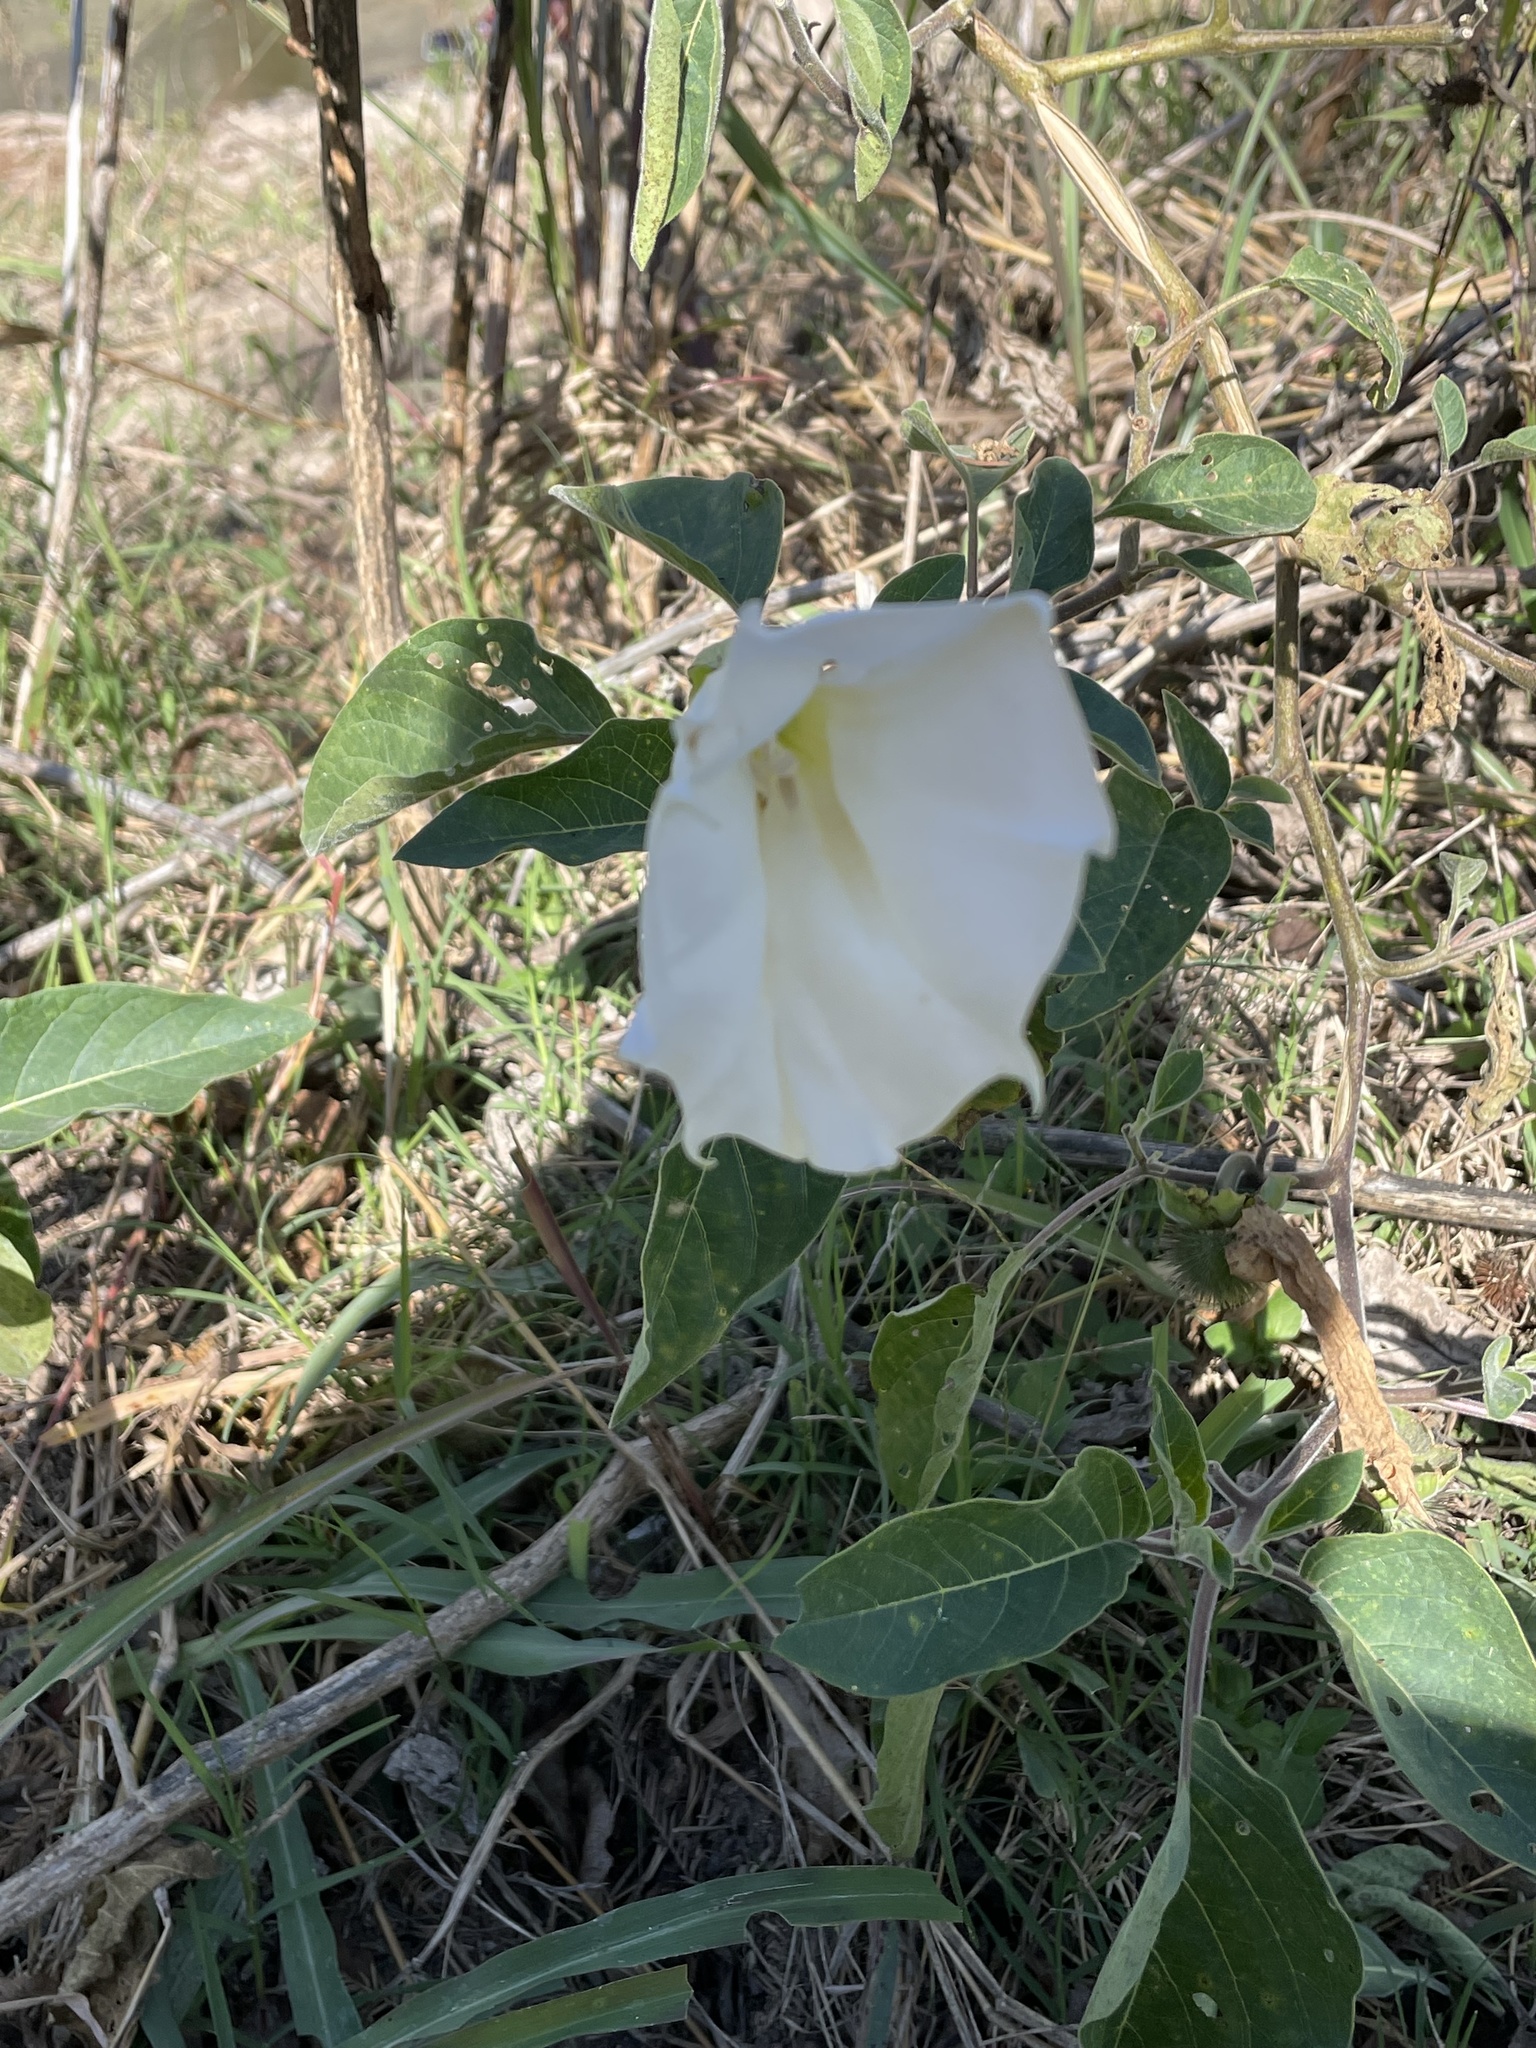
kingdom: Plantae
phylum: Tracheophyta
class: Magnoliopsida
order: Solanales
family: Solanaceae
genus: Datura
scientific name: Datura innoxia
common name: Downy thorn-apple
